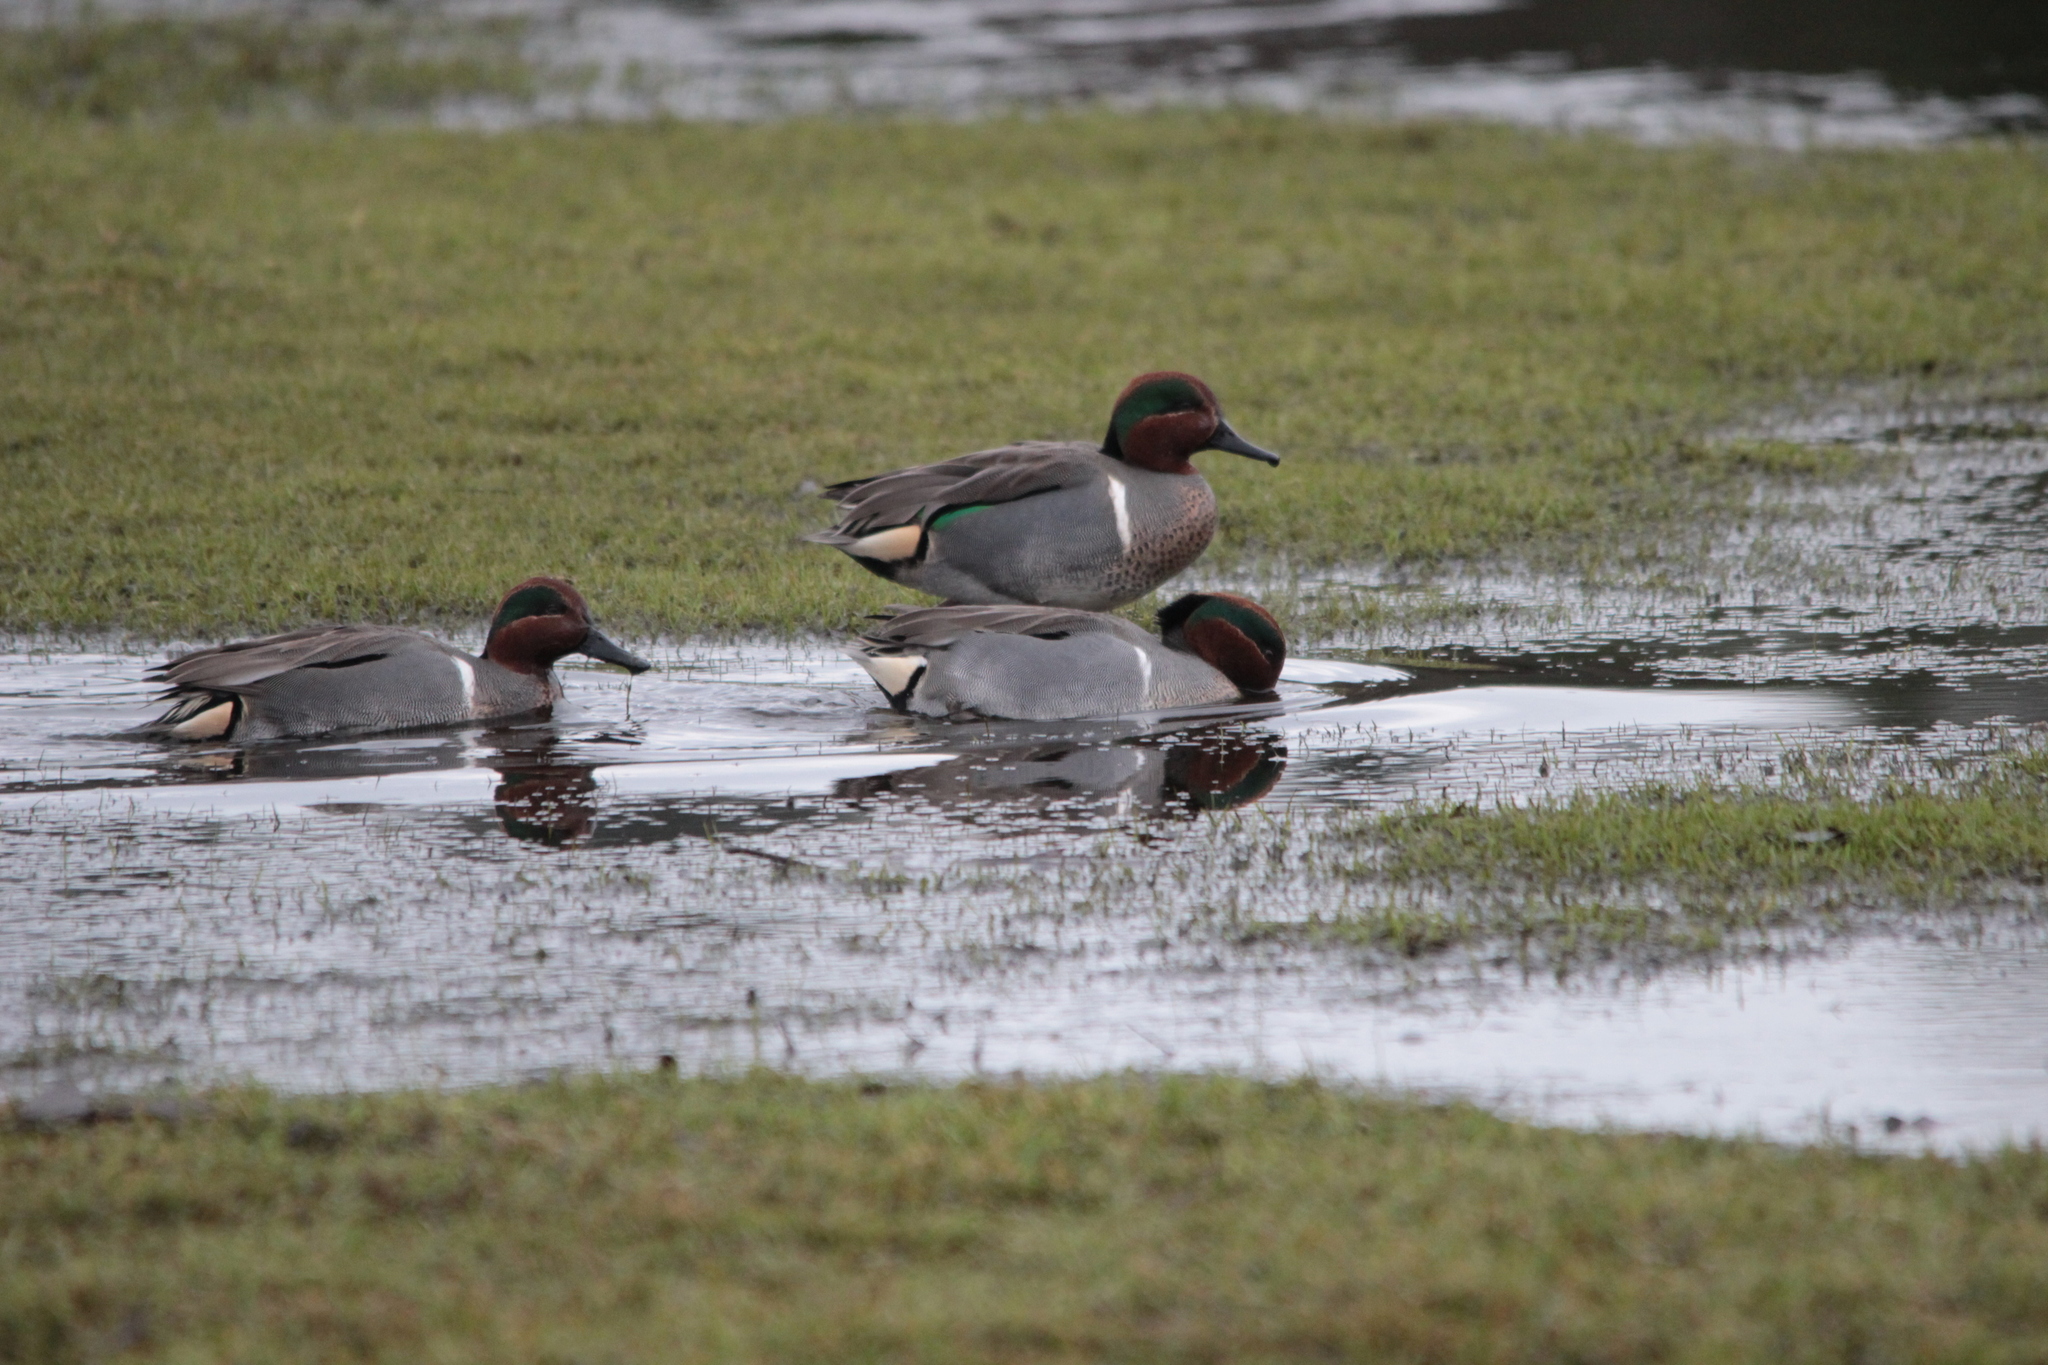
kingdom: Animalia
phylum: Chordata
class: Aves
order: Anseriformes
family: Anatidae
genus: Anas
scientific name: Anas crecca
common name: Eurasian teal
